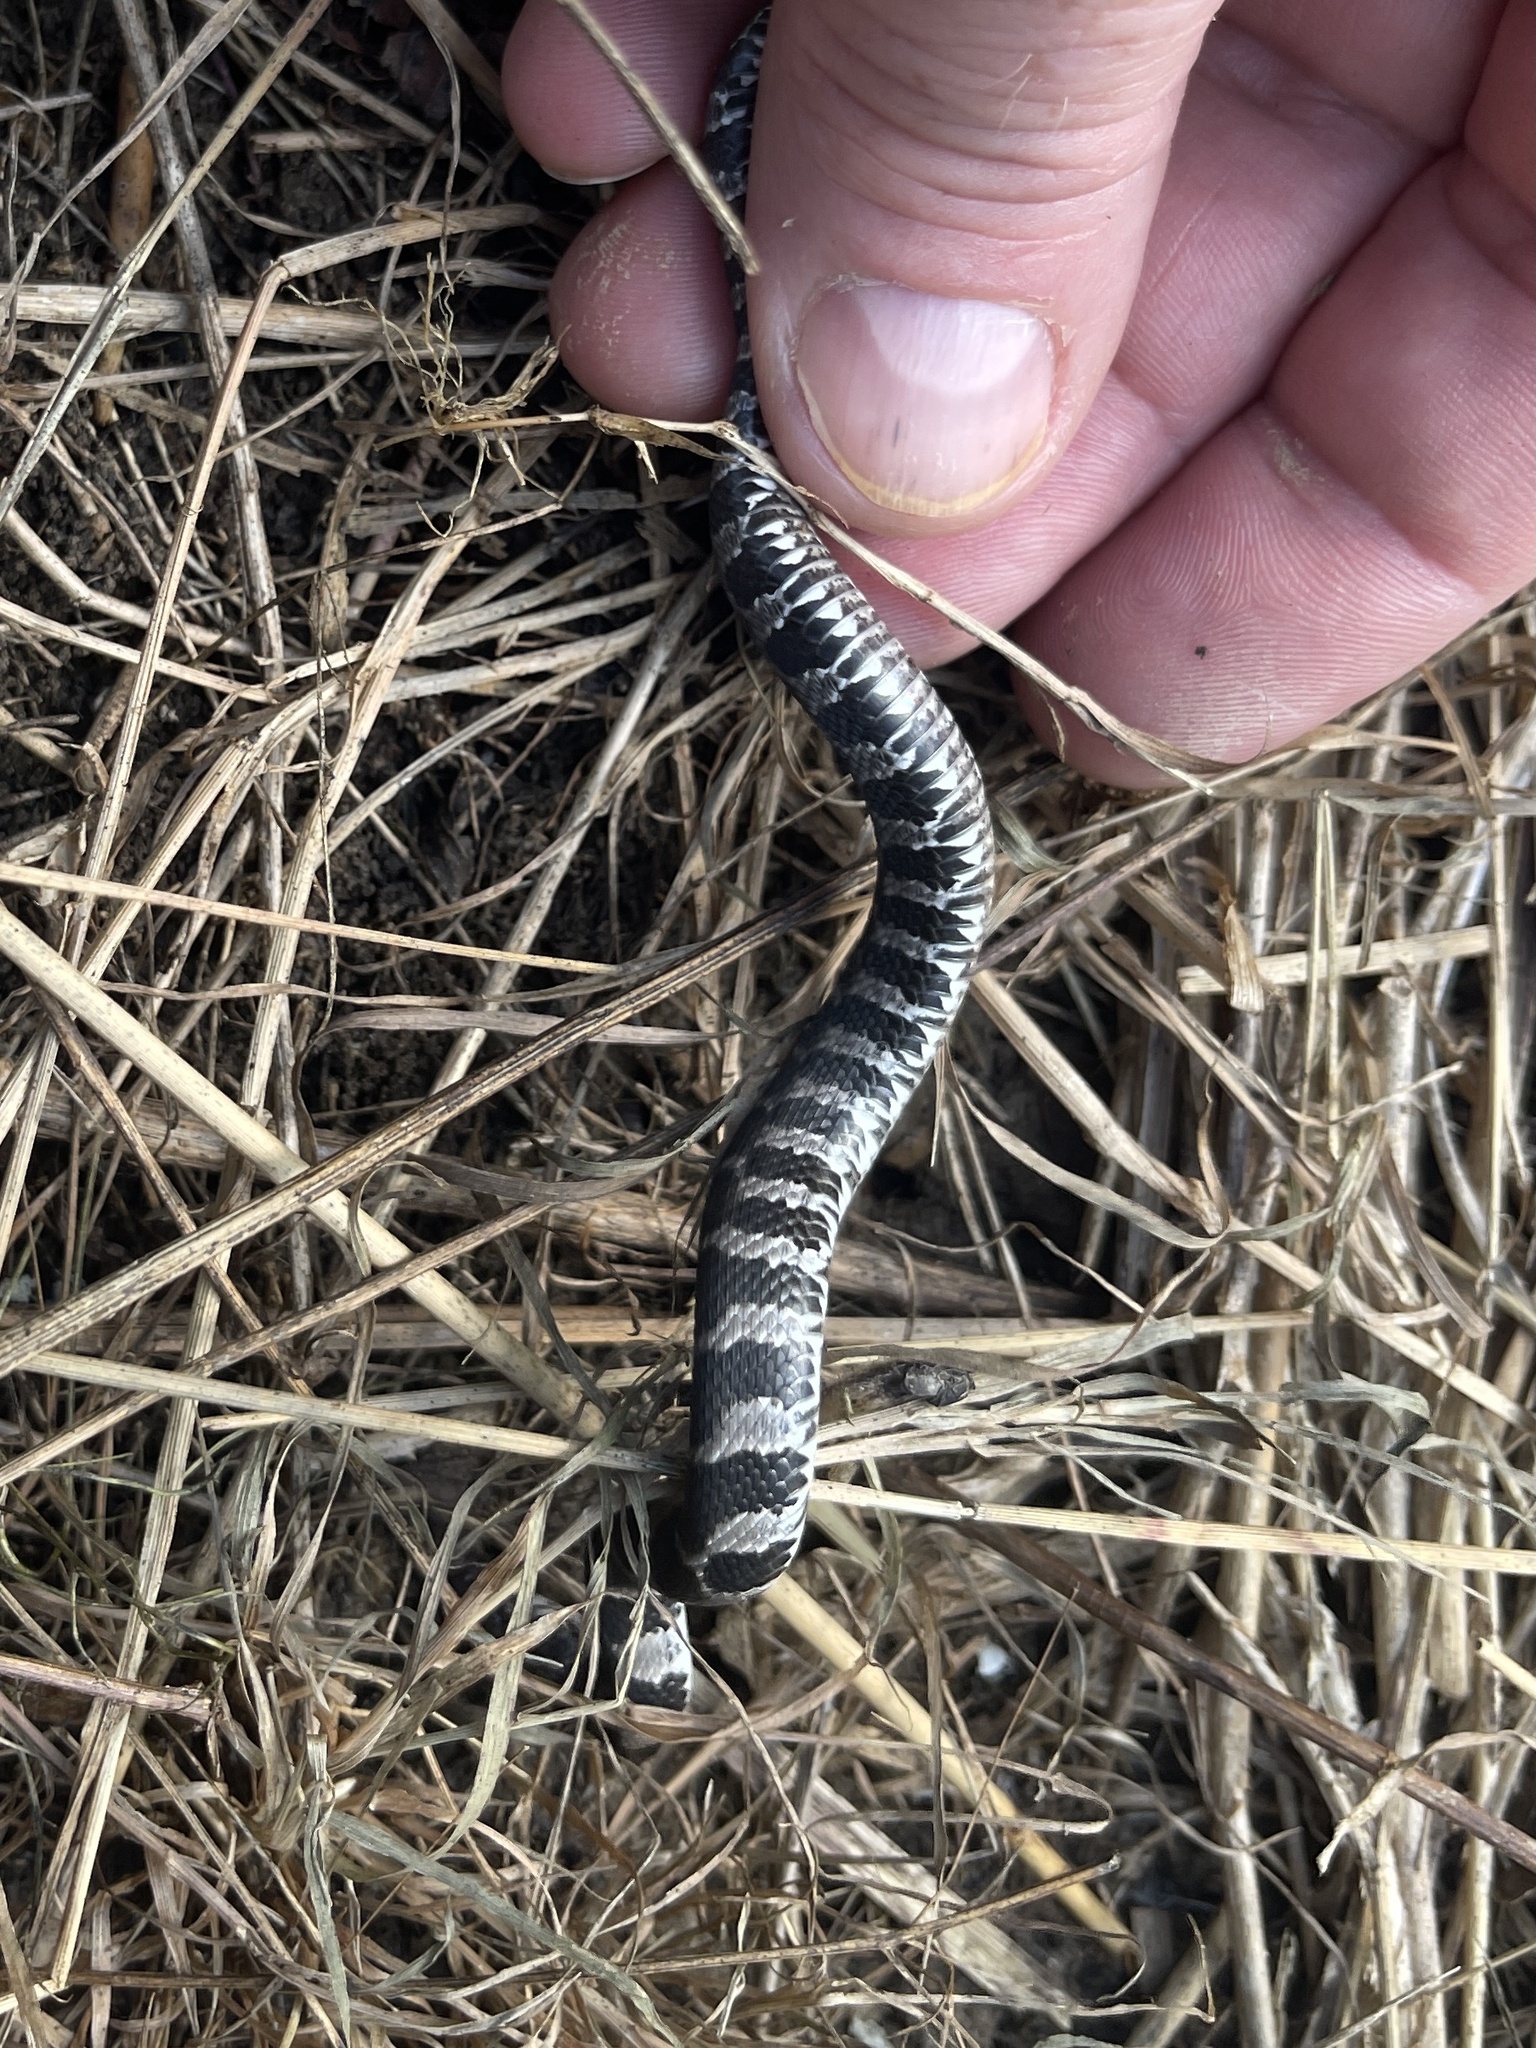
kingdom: Animalia
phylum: Chordata
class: Squamata
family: Colubridae
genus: Nerodia
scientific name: Nerodia sipedon
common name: Northern water snake
